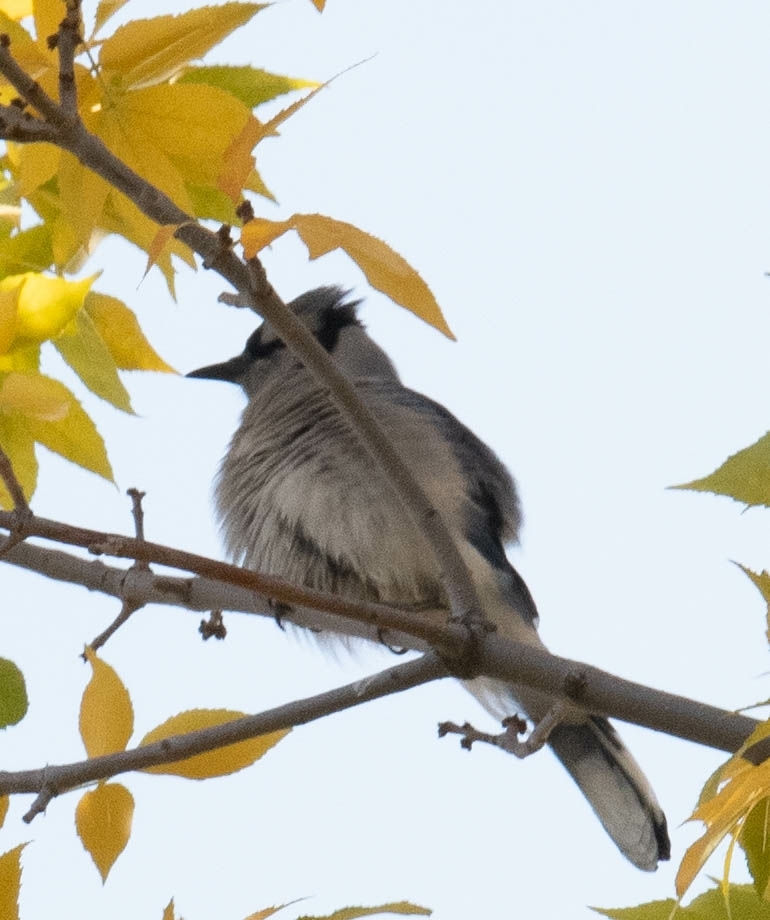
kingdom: Animalia
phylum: Chordata
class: Aves
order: Passeriformes
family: Corvidae
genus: Cyanocitta
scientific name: Cyanocitta cristata
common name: Blue jay
